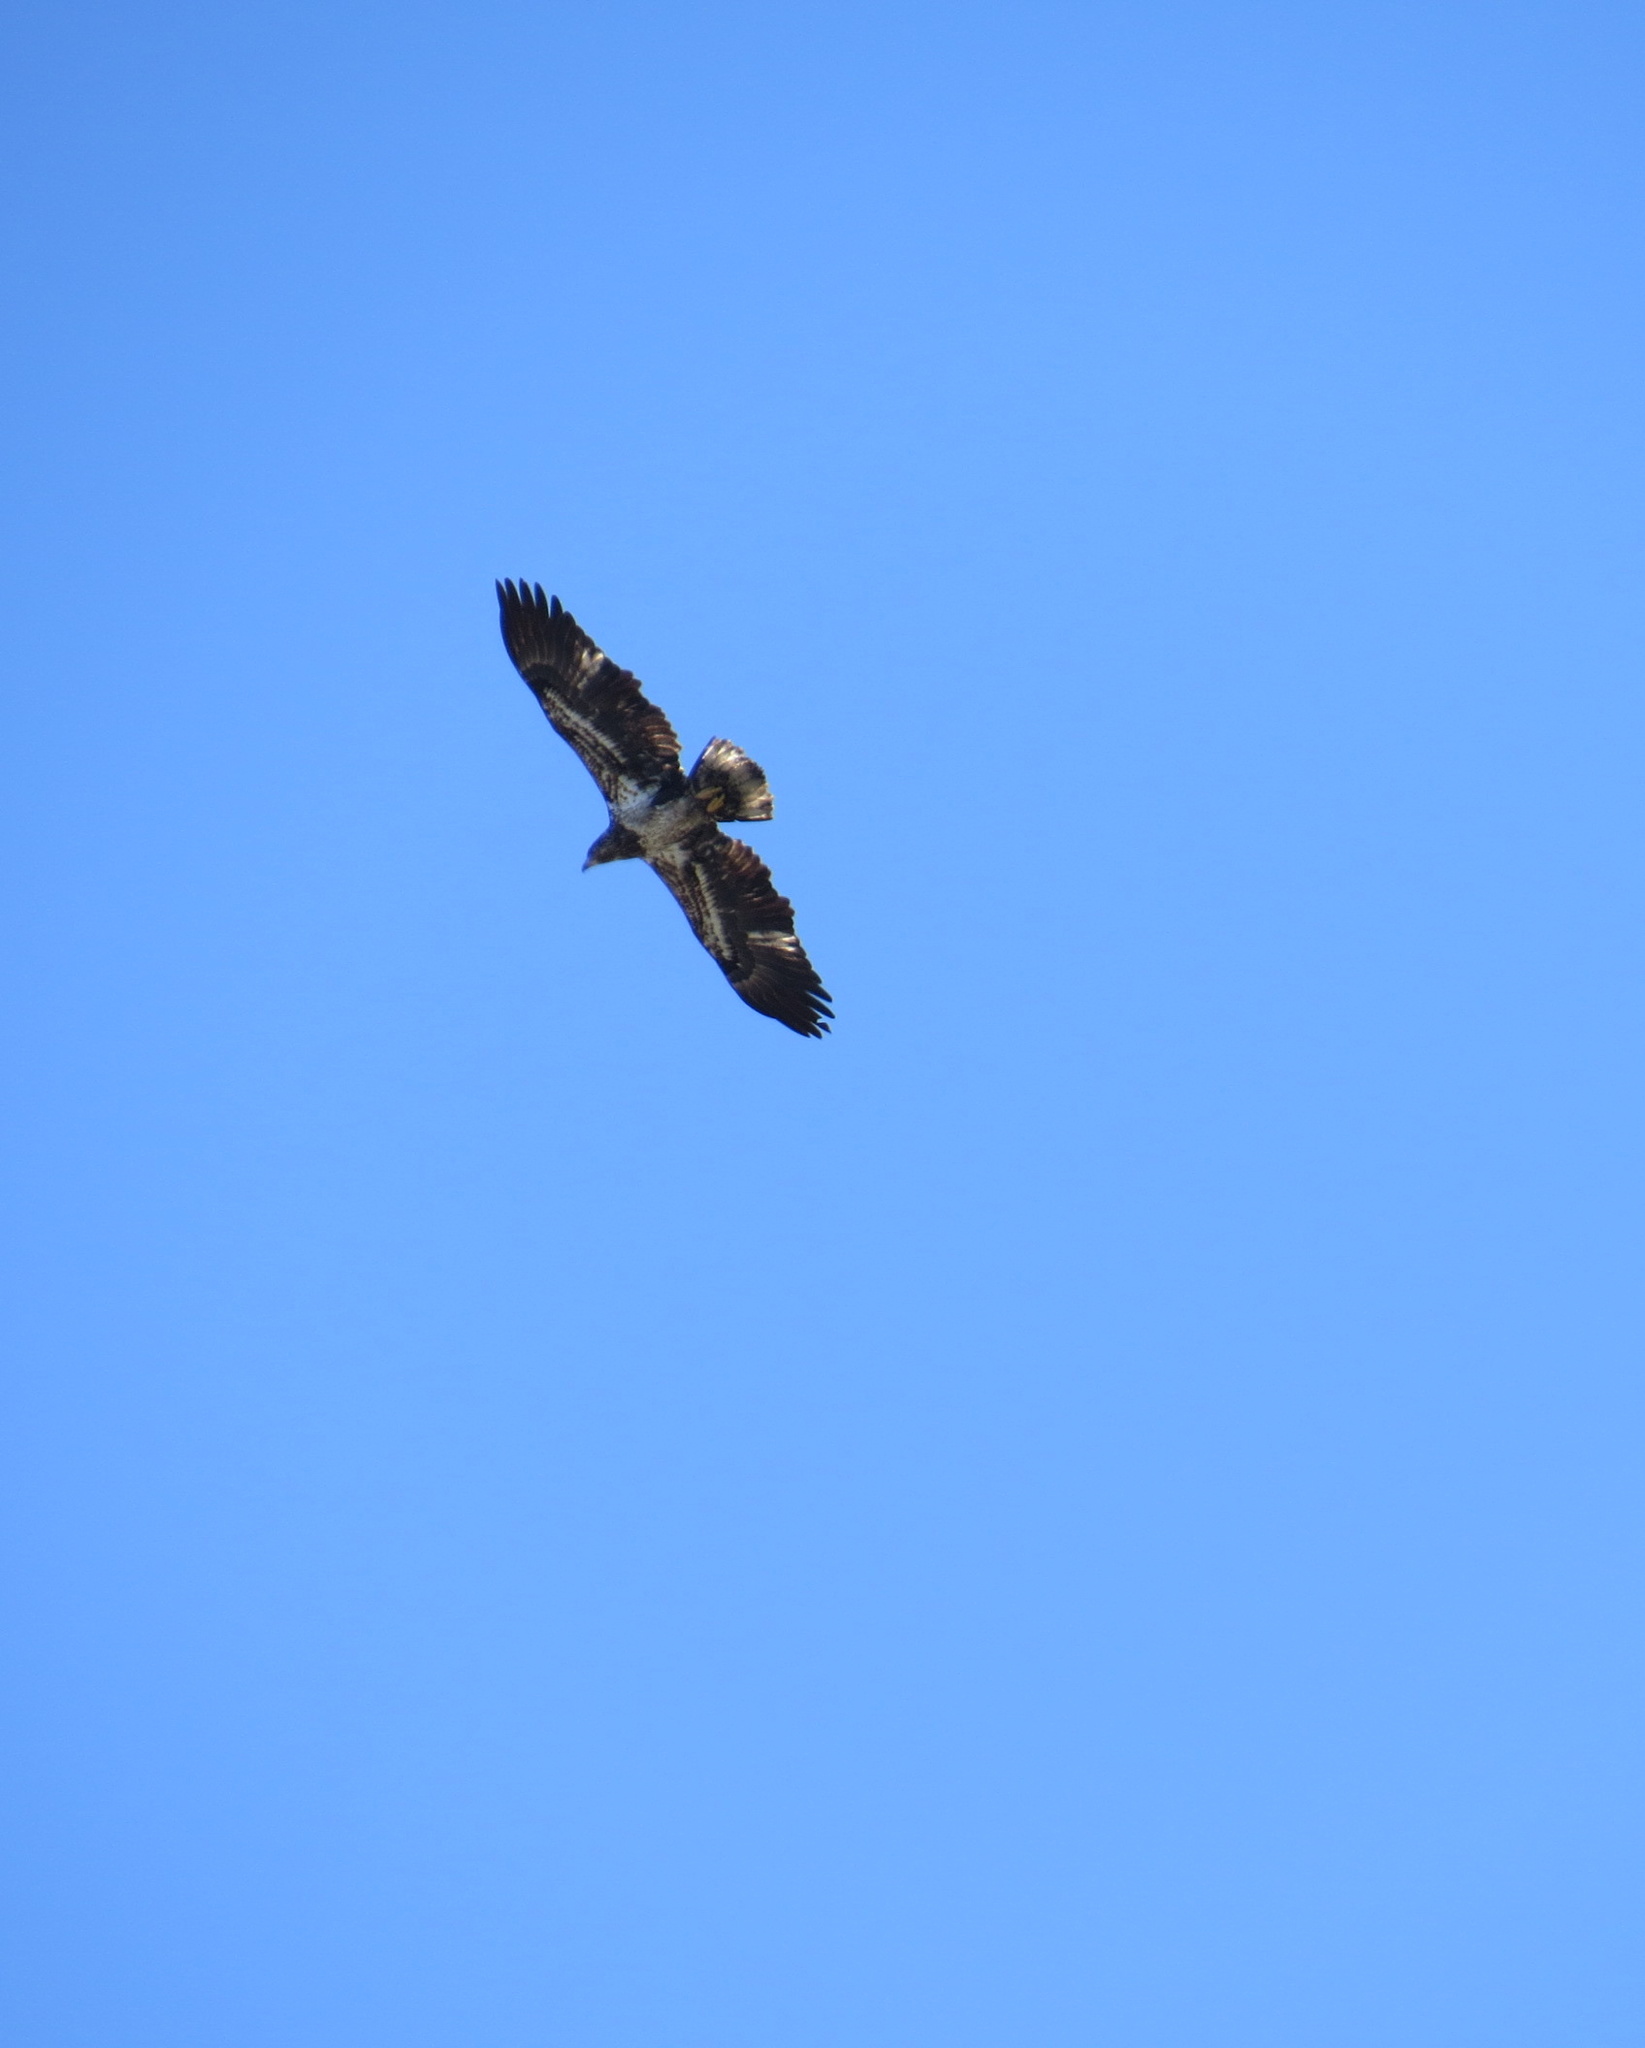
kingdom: Animalia
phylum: Chordata
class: Aves
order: Accipitriformes
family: Accipitridae
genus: Haliaeetus
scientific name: Haliaeetus leucocephalus
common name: Bald eagle
